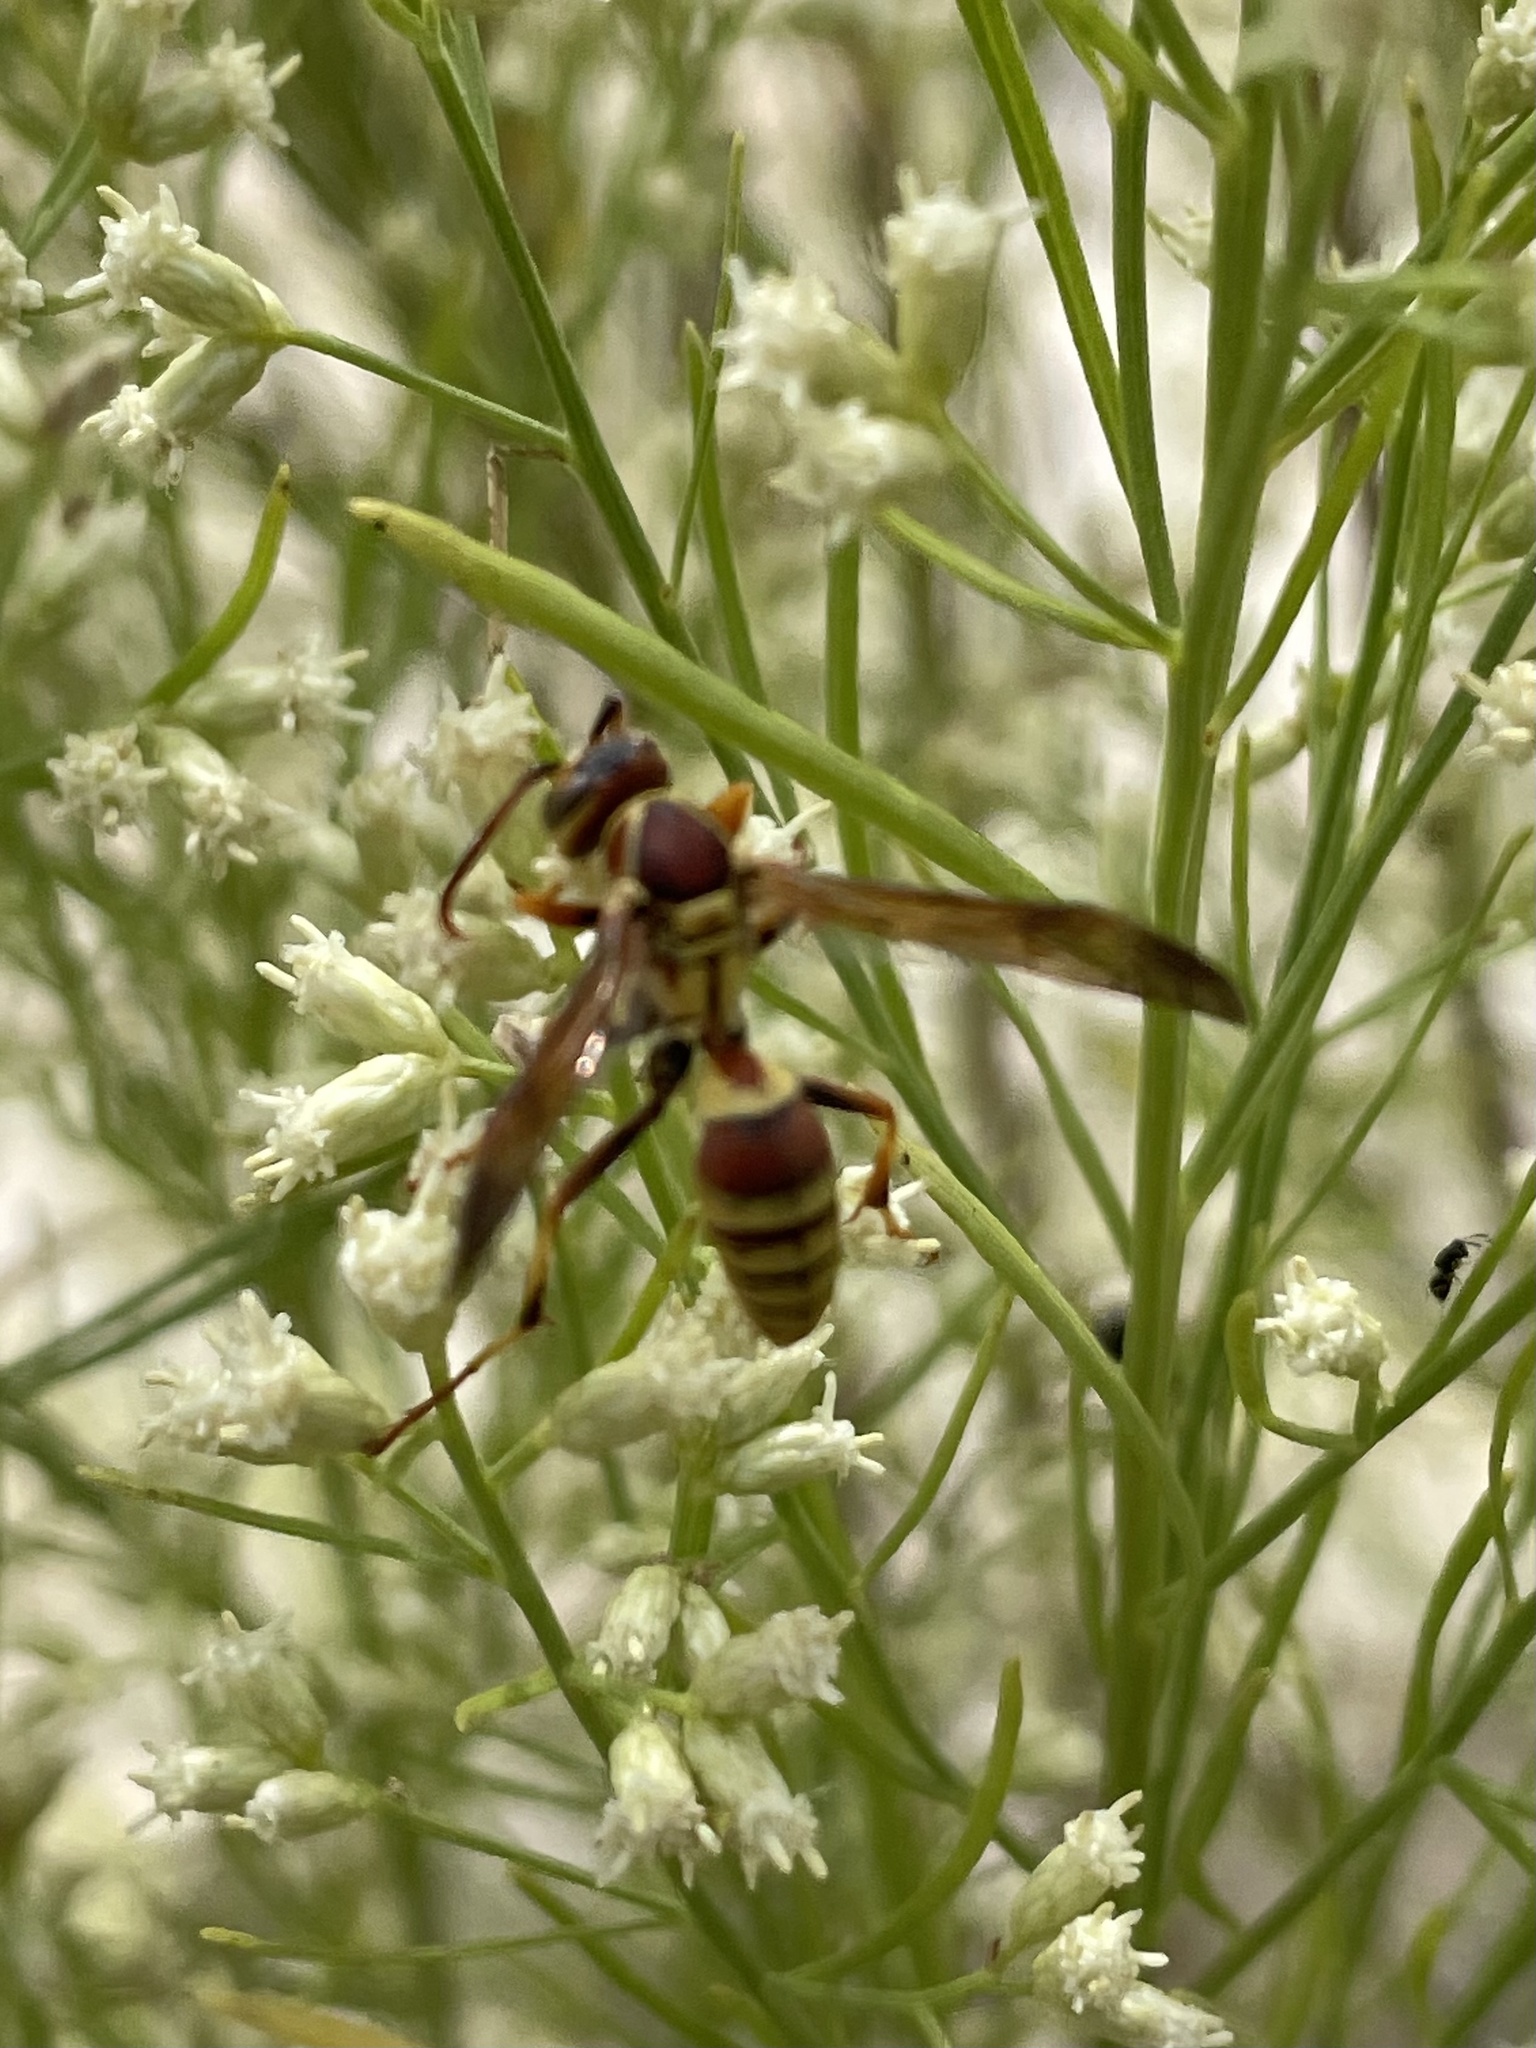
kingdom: Animalia
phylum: Arthropoda
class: Insecta
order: Hymenoptera
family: Eumenidae
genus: Polistes
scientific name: Polistes exclamans
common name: Paper wasp
